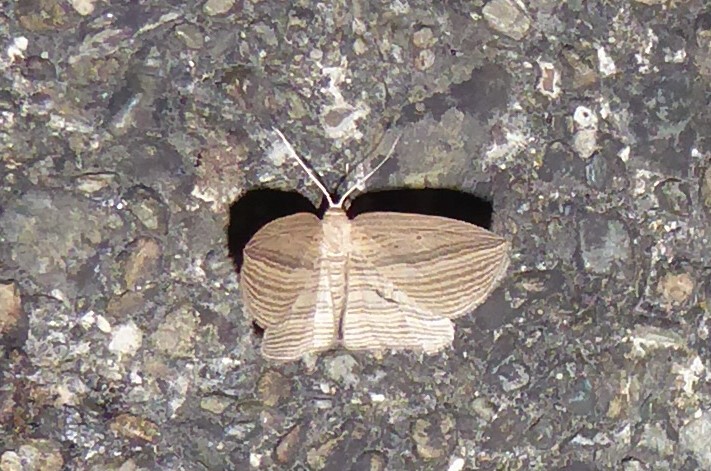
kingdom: Animalia
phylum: Arthropoda
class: Insecta
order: Lepidoptera
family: Geometridae
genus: Epiphryne
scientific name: Epiphryne verriculata
